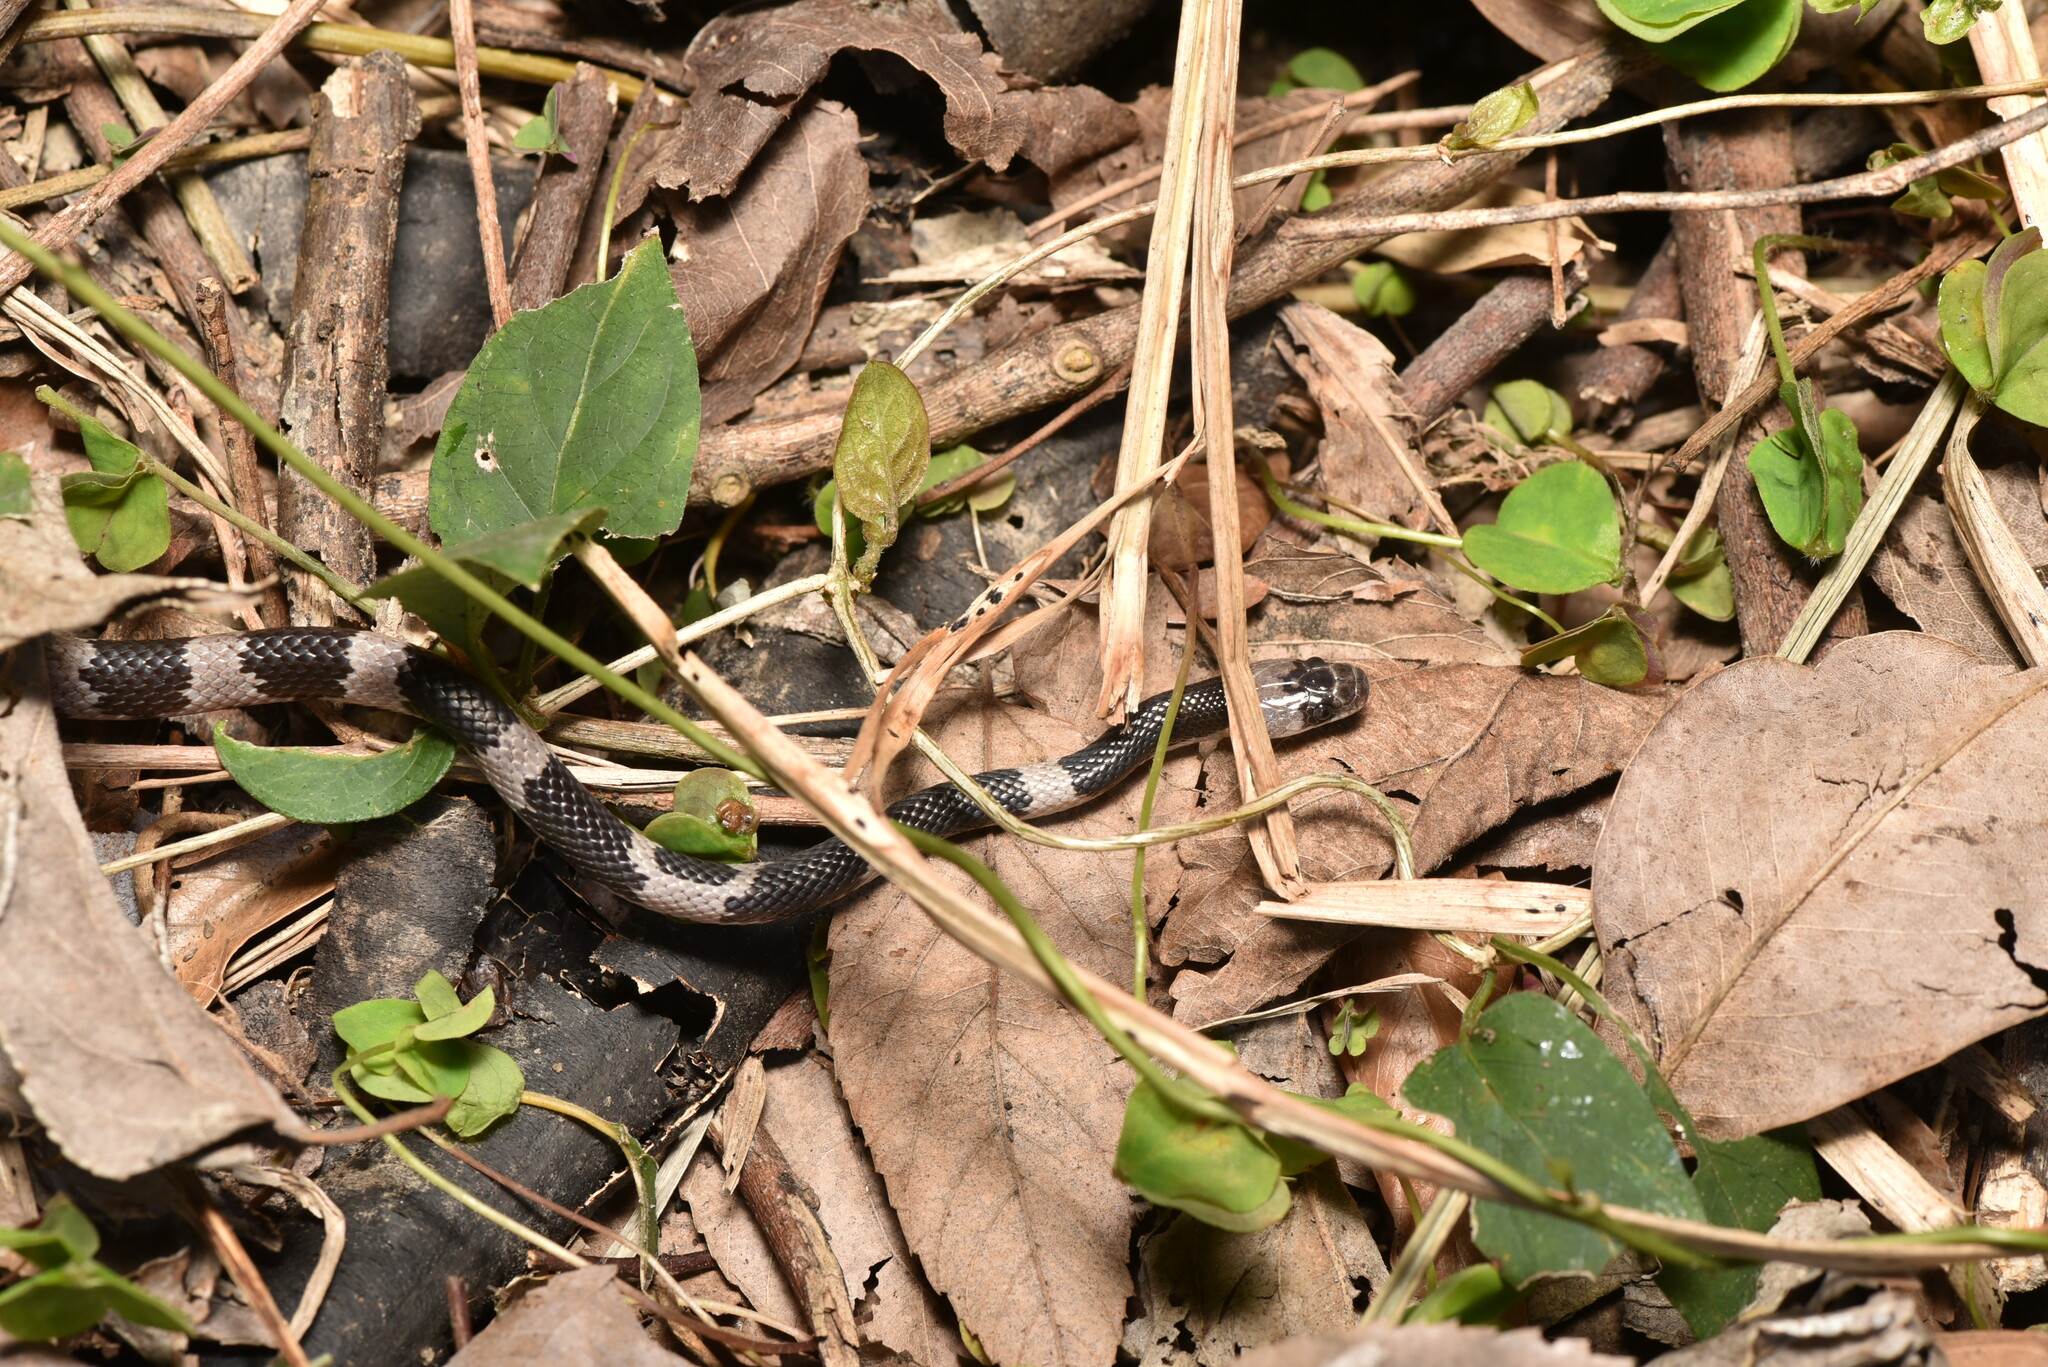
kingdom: Animalia
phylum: Chordata
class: Squamata
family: Colubridae
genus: Lycodon
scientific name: Lycodon ruhstrati
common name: Rushstrat's wolf snake
